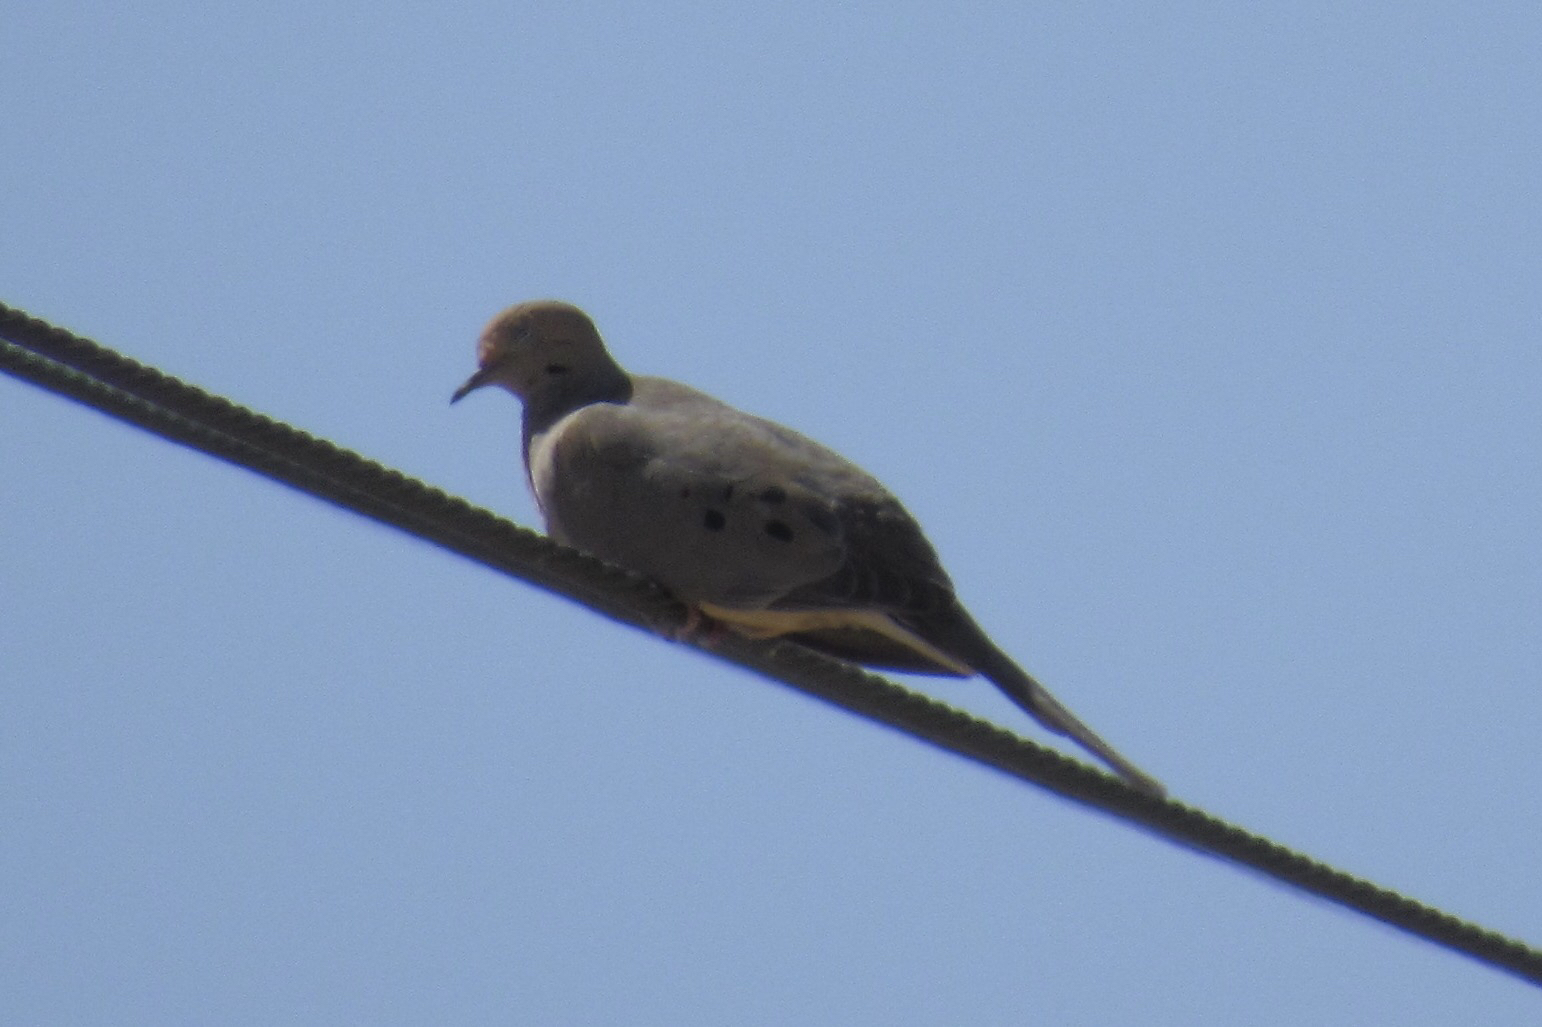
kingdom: Animalia
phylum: Chordata
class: Aves
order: Columbiformes
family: Columbidae
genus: Zenaida
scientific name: Zenaida macroura
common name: Mourning dove
